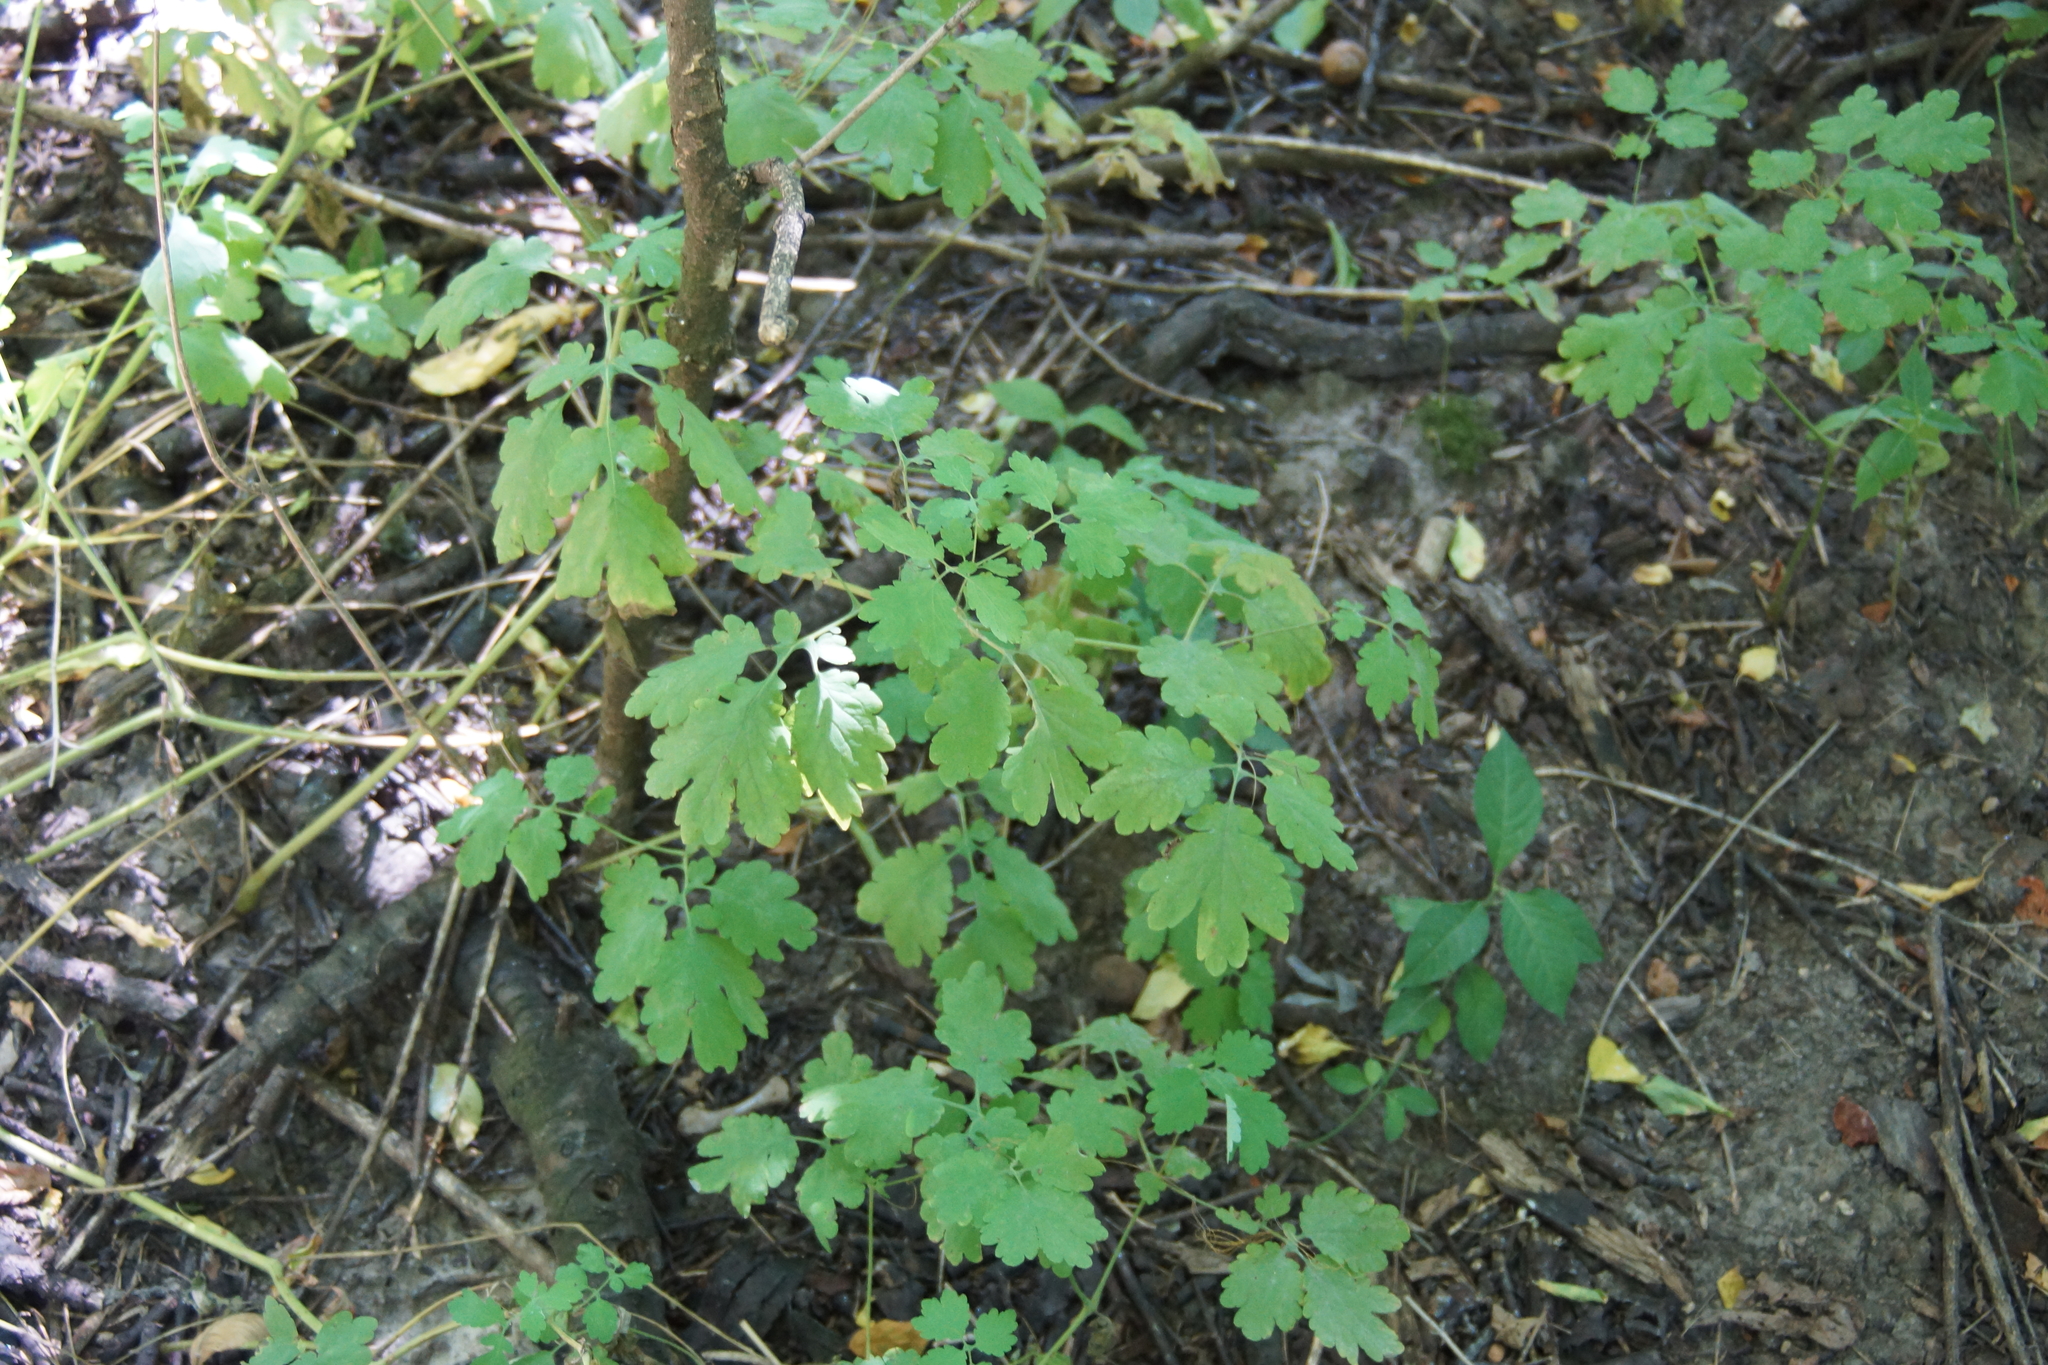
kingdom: Plantae
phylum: Tracheophyta
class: Magnoliopsida
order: Ranunculales
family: Papaveraceae
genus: Chelidonium
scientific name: Chelidonium majus
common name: Greater celandine
